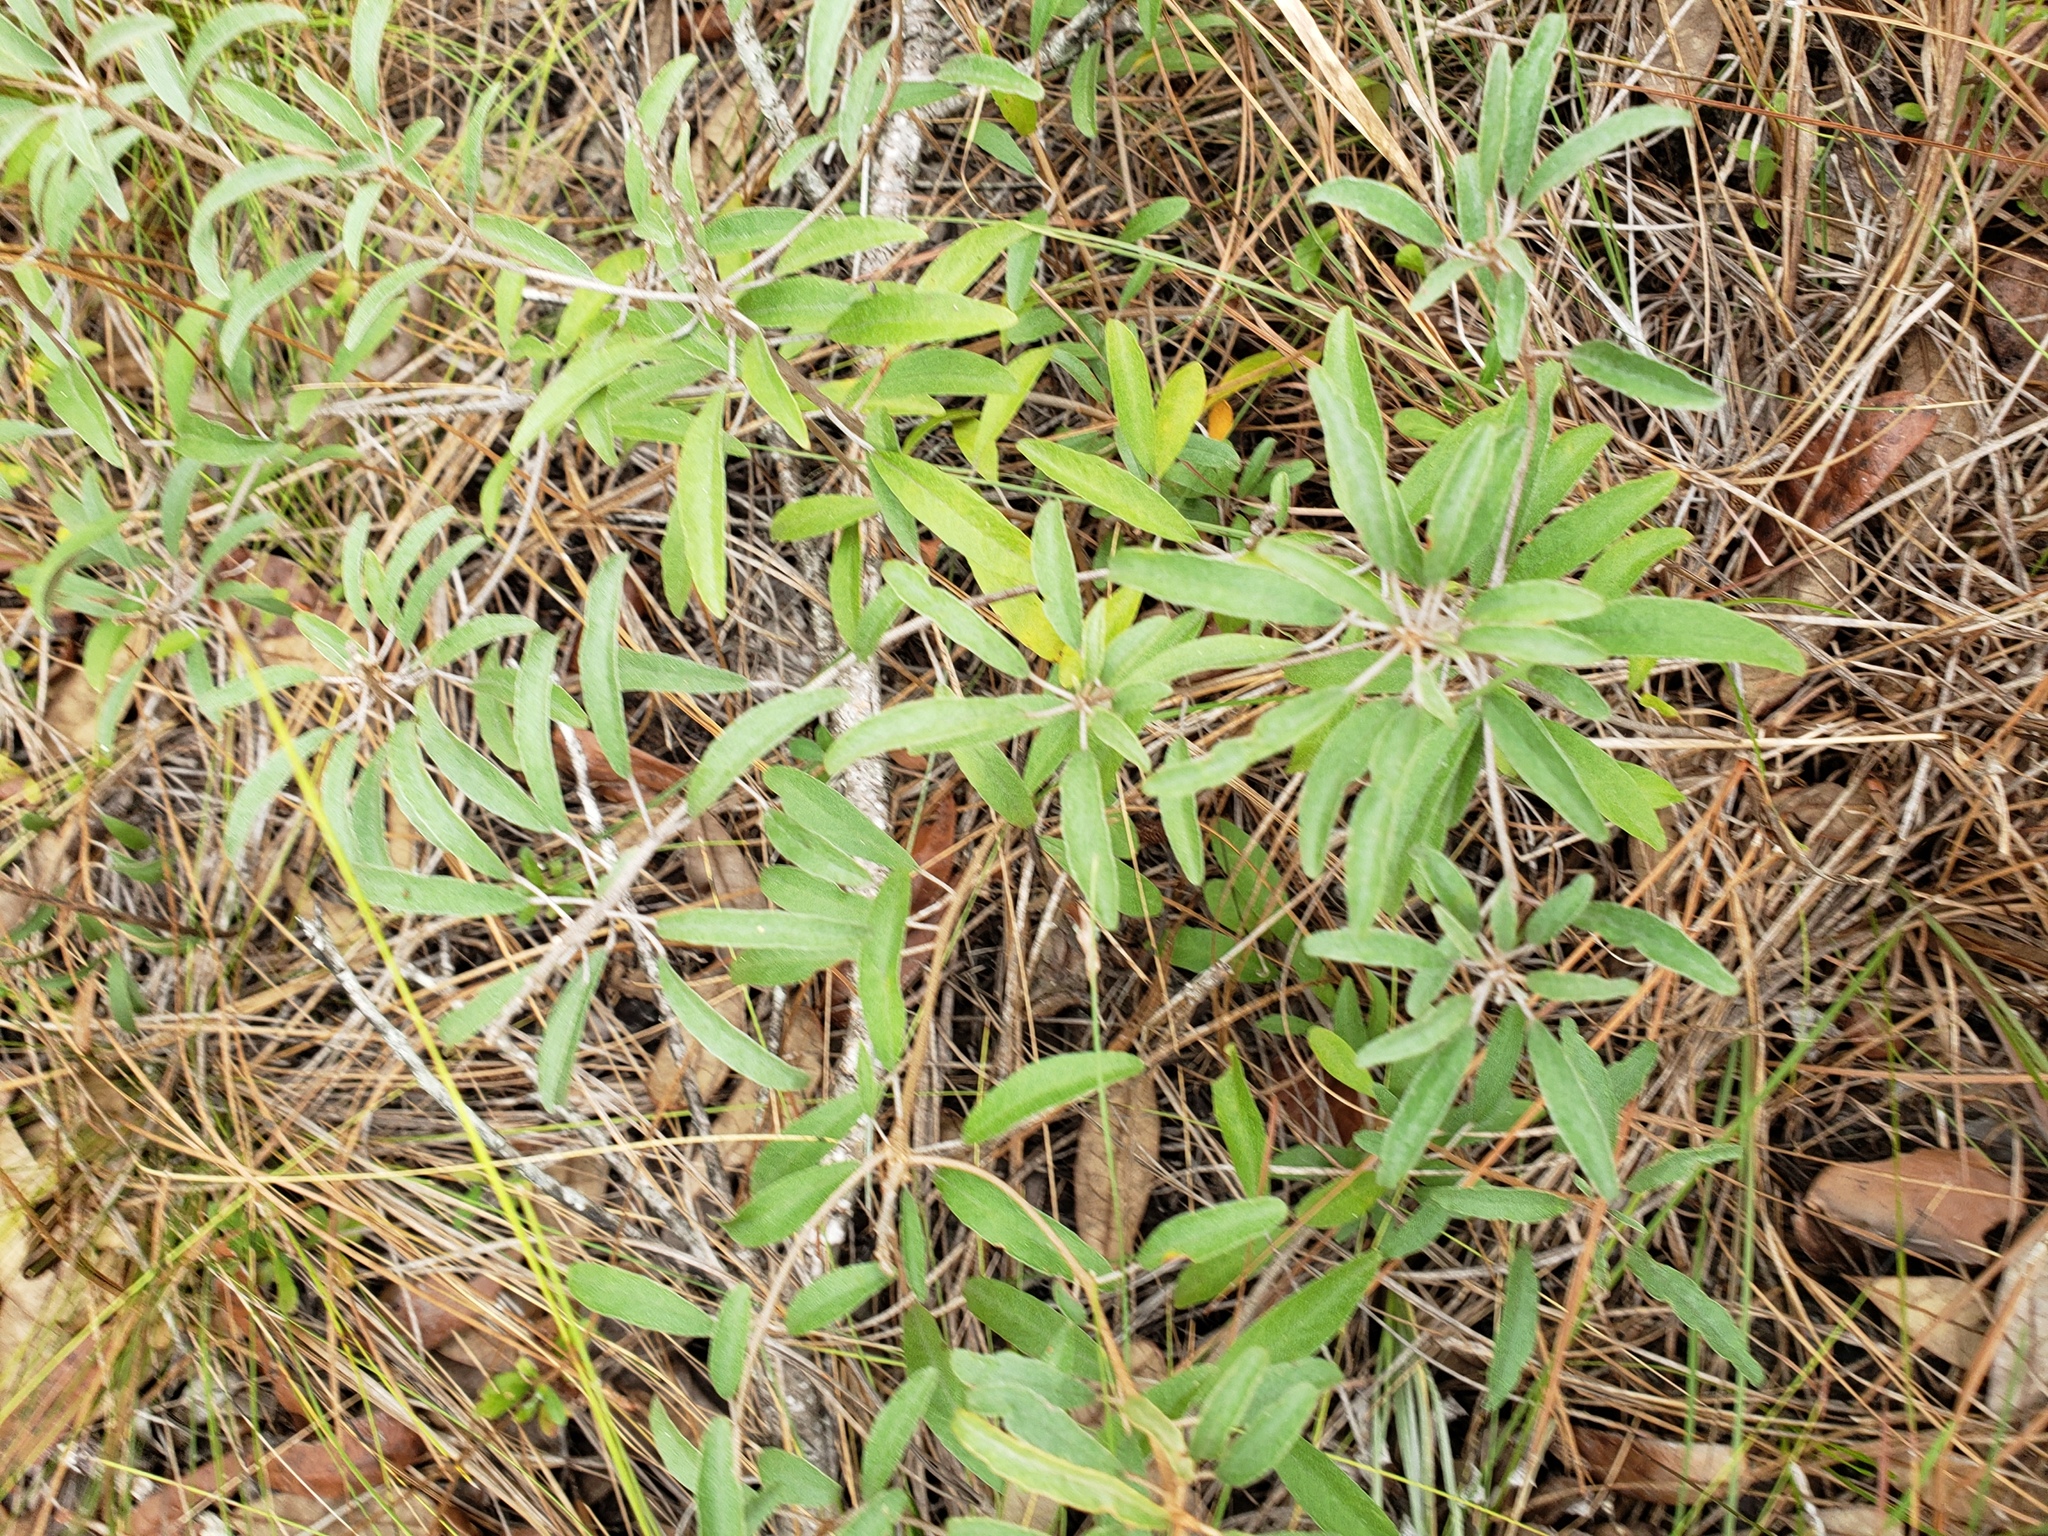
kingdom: Plantae
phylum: Tracheophyta
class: Magnoliopsida
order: Malpighiales
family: Euphorbiaceae
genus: Croton
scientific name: Croton argyranthemus
